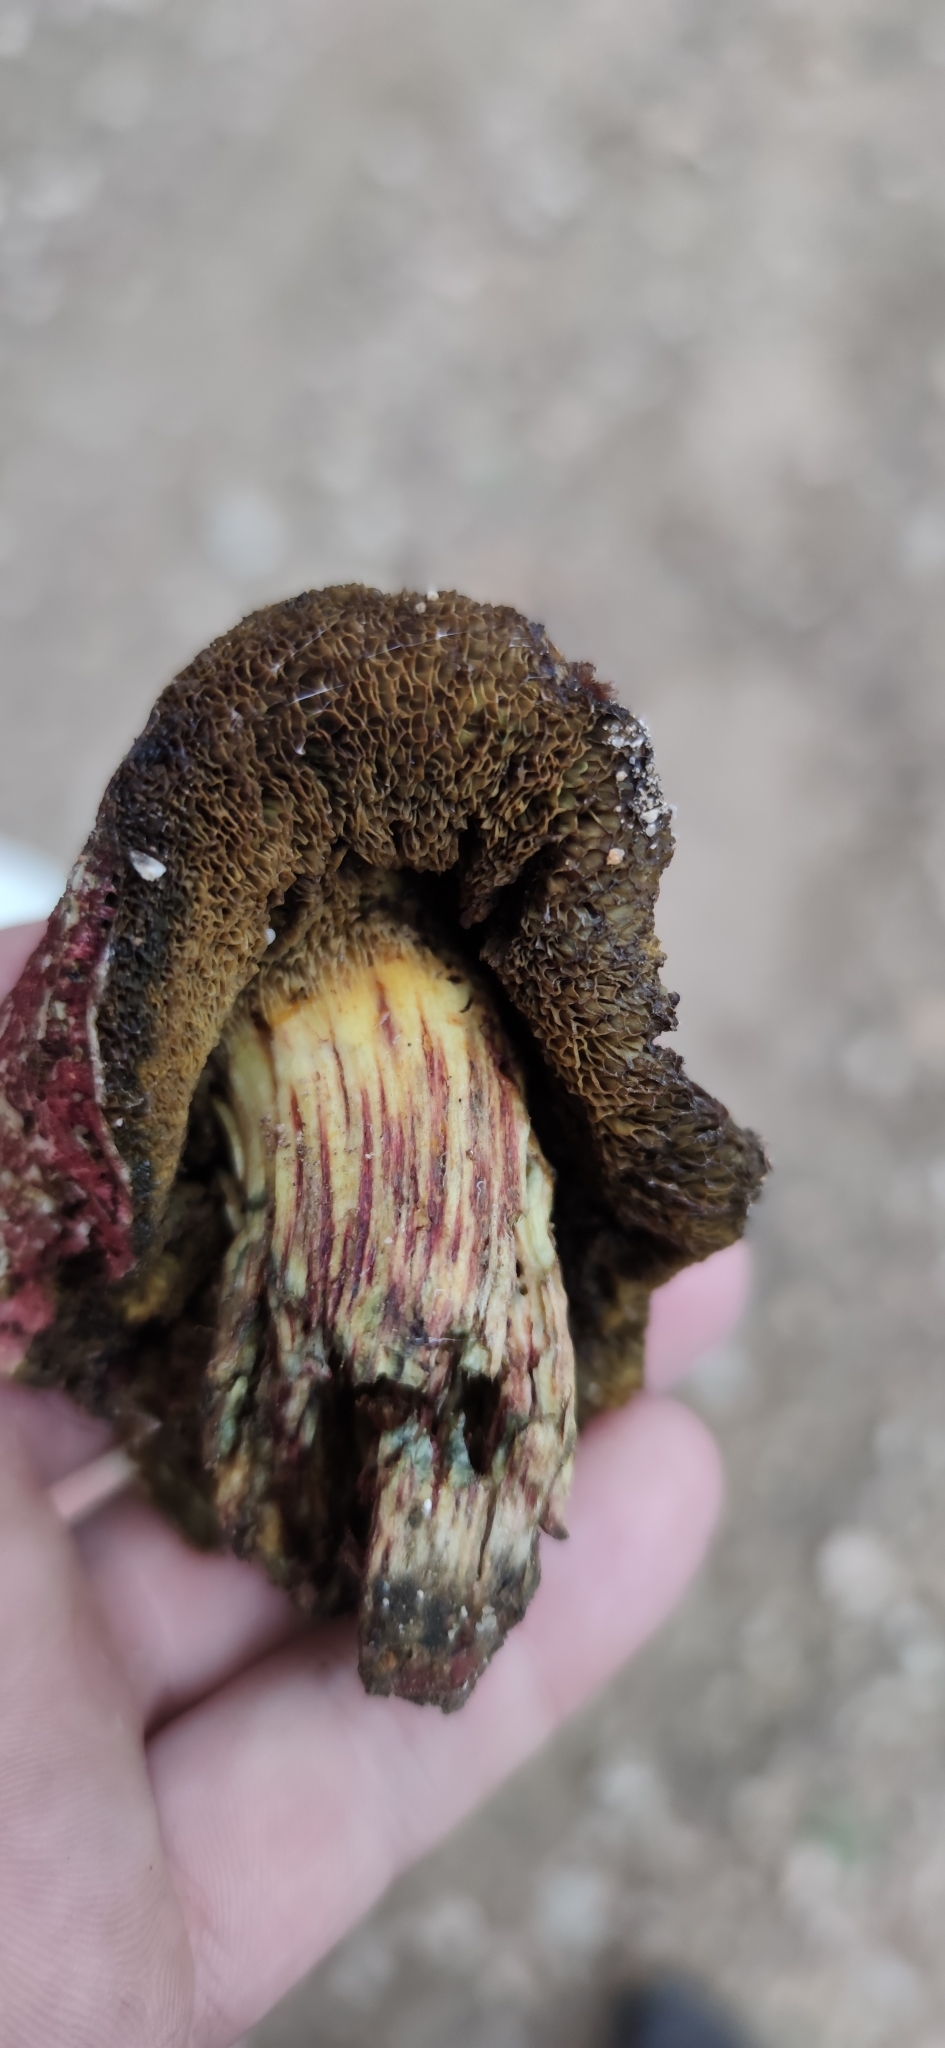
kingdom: Fungi
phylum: Basidiomycota
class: Agaricomycetes
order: Boletales
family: Boletaceae
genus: Xerocomellus
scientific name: Xerocomellus dryophilus
